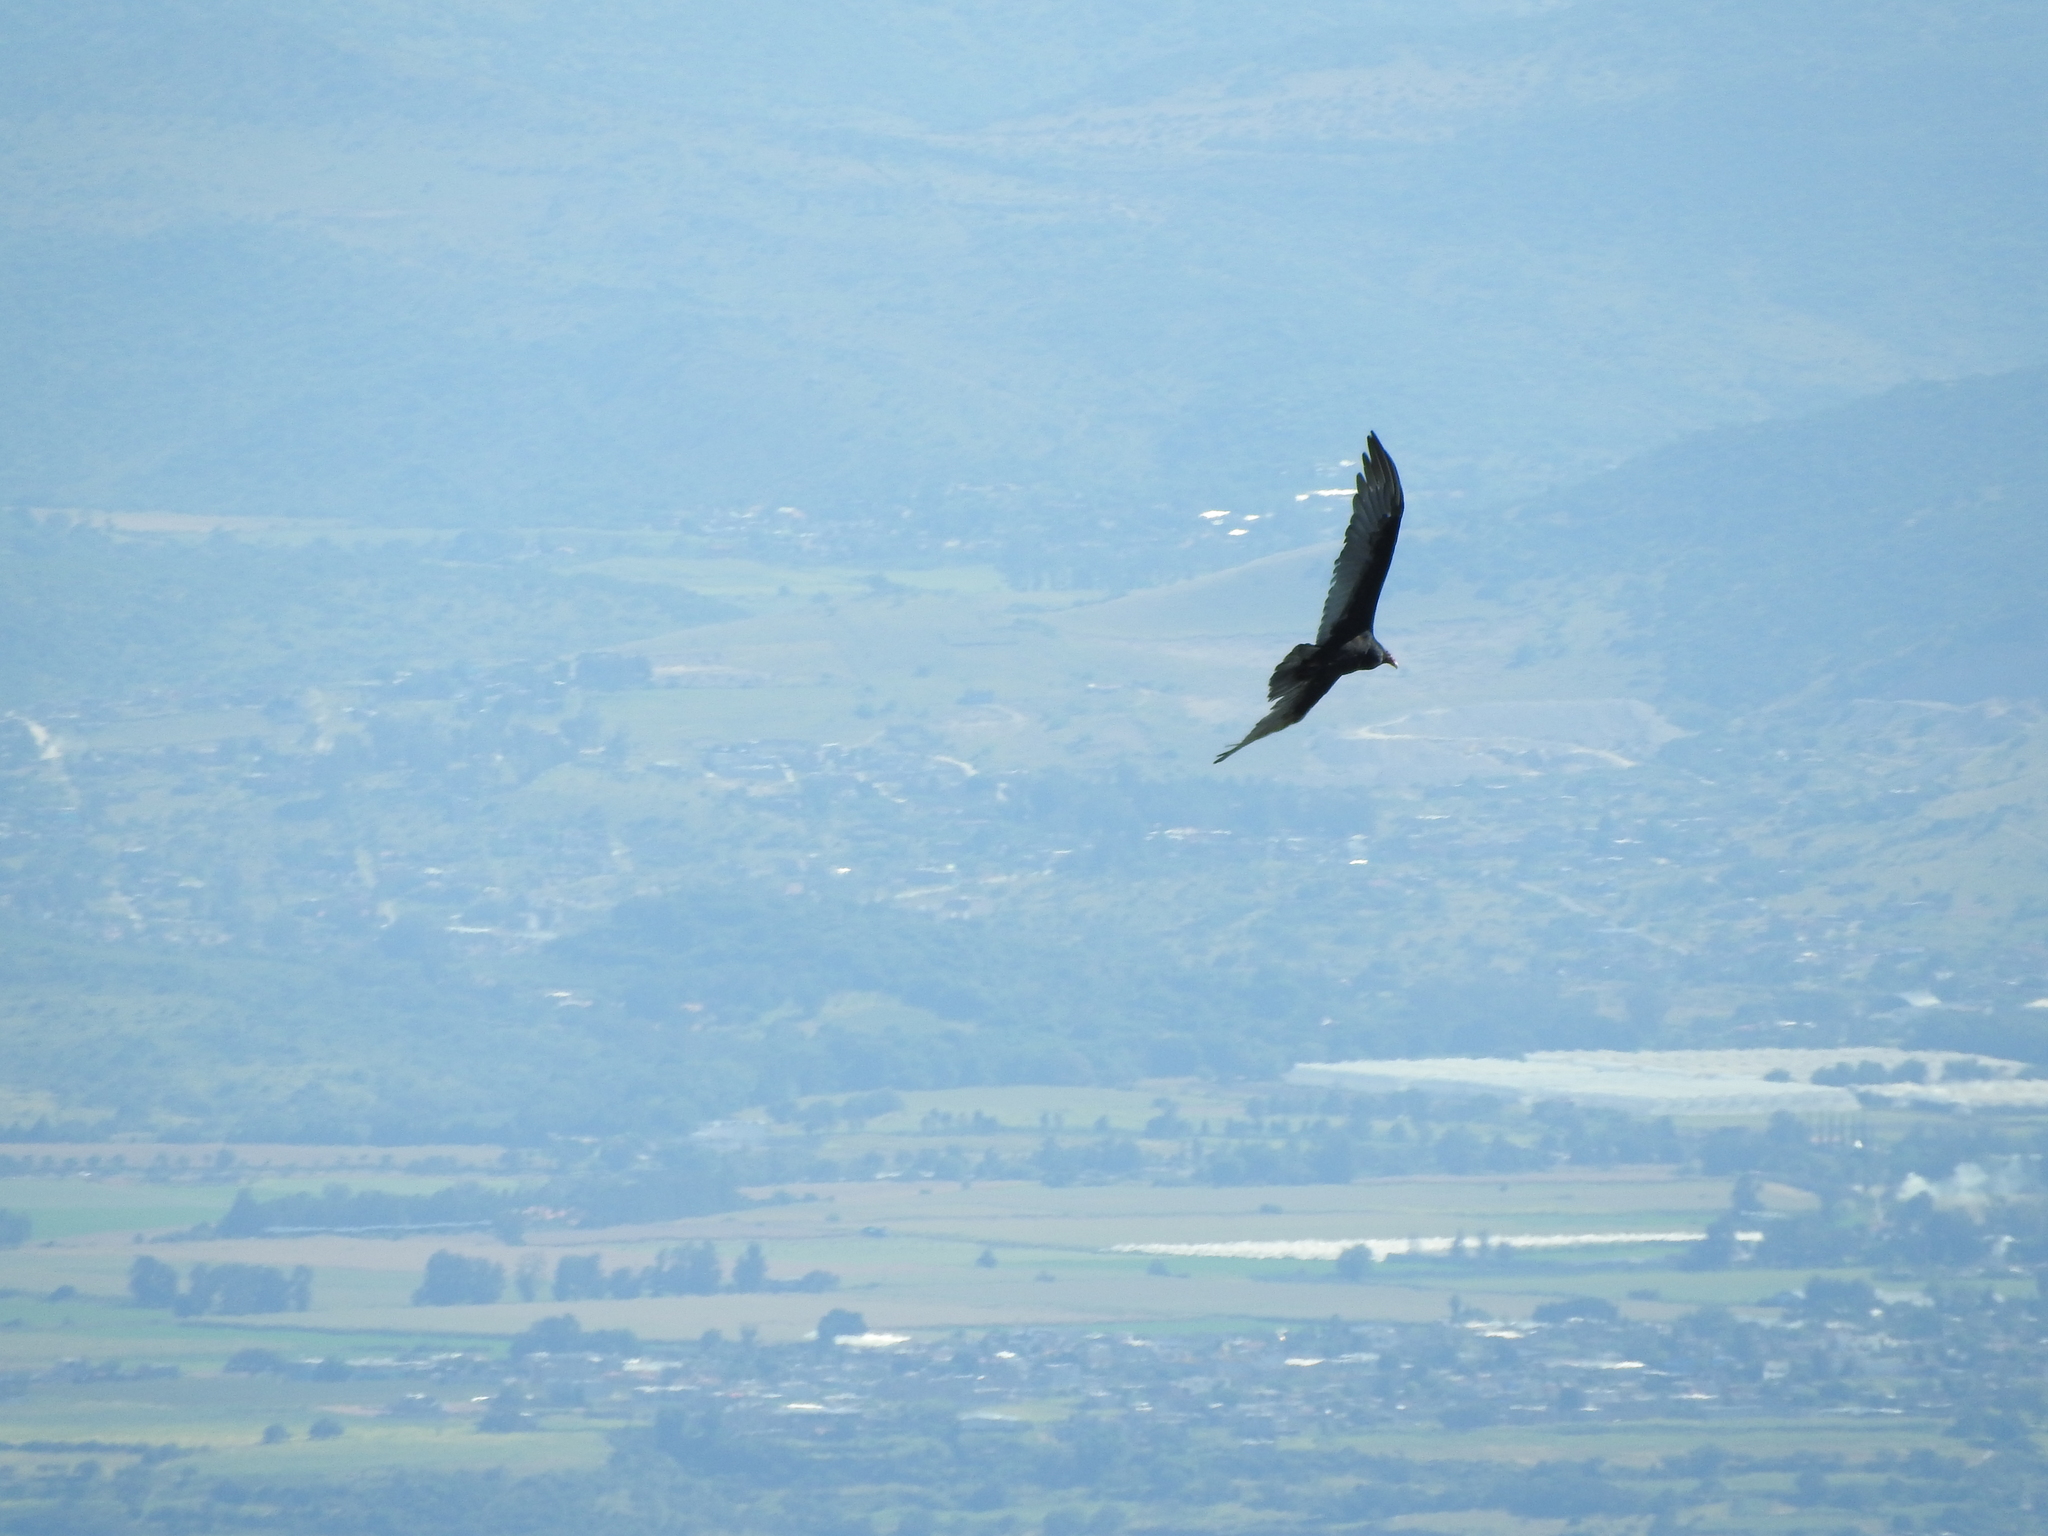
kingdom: Animalia
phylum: Chordata
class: Aves
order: Accipitriformes
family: Cathartidae
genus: Cathartes
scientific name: Cathartes aura
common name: Turkey vulture
